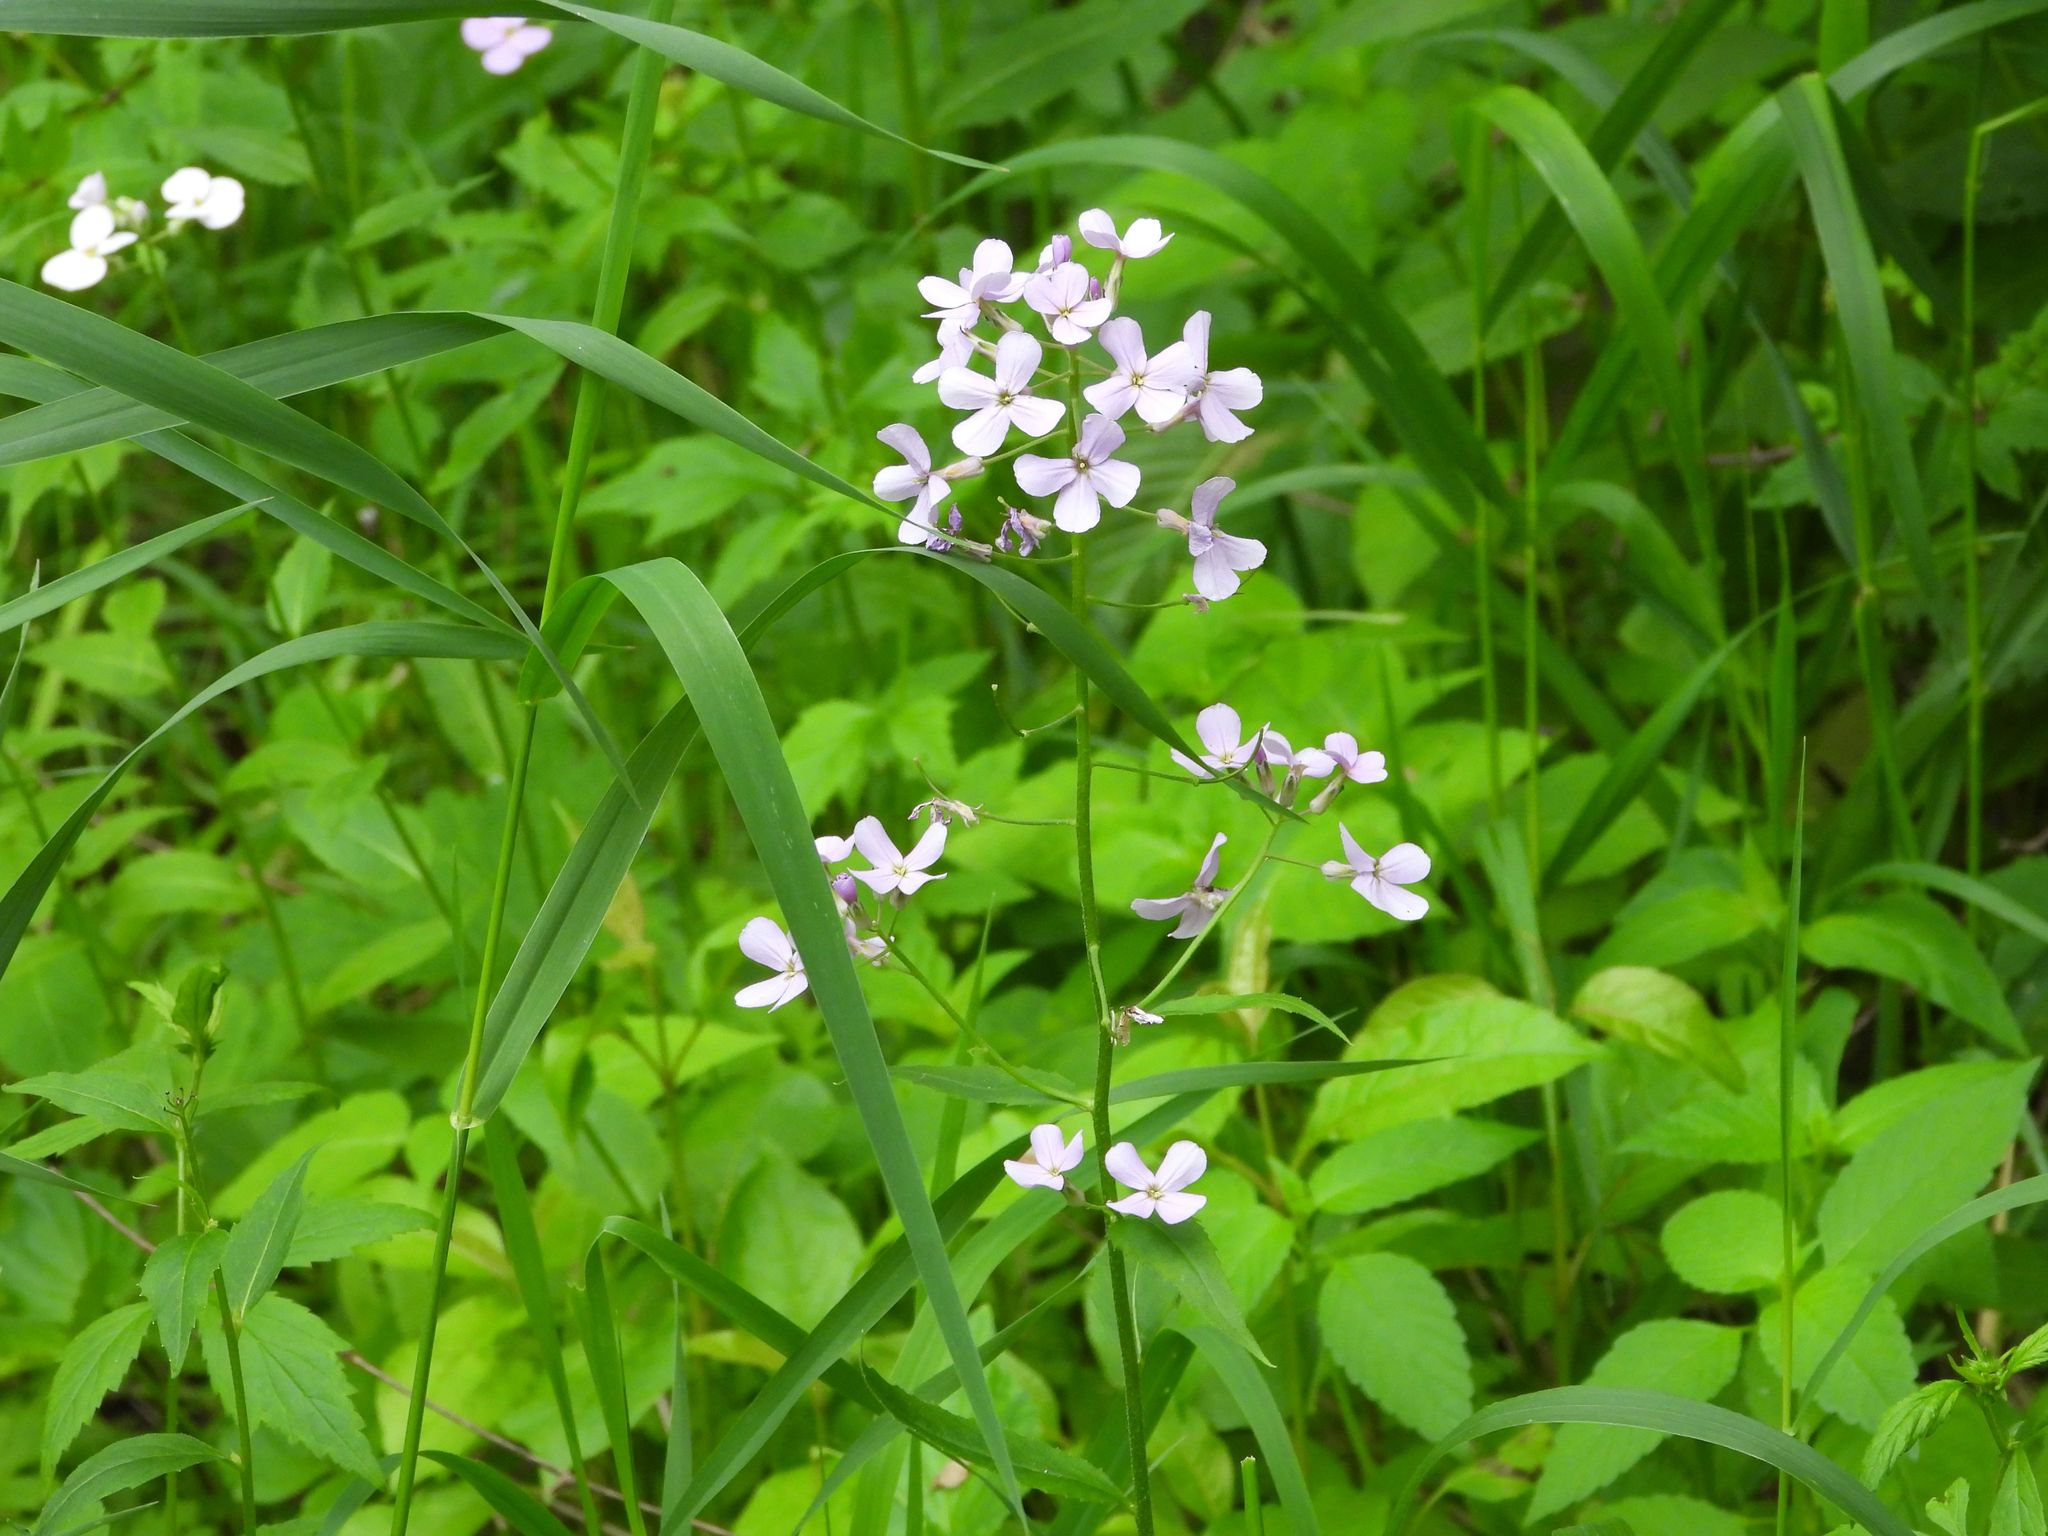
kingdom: Plantae
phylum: Tracheophyta
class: Magnoliopsida
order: Brassicales
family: Brassicaceae
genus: Hesperis
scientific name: Hesperis matronalis
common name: Dame's-violet
